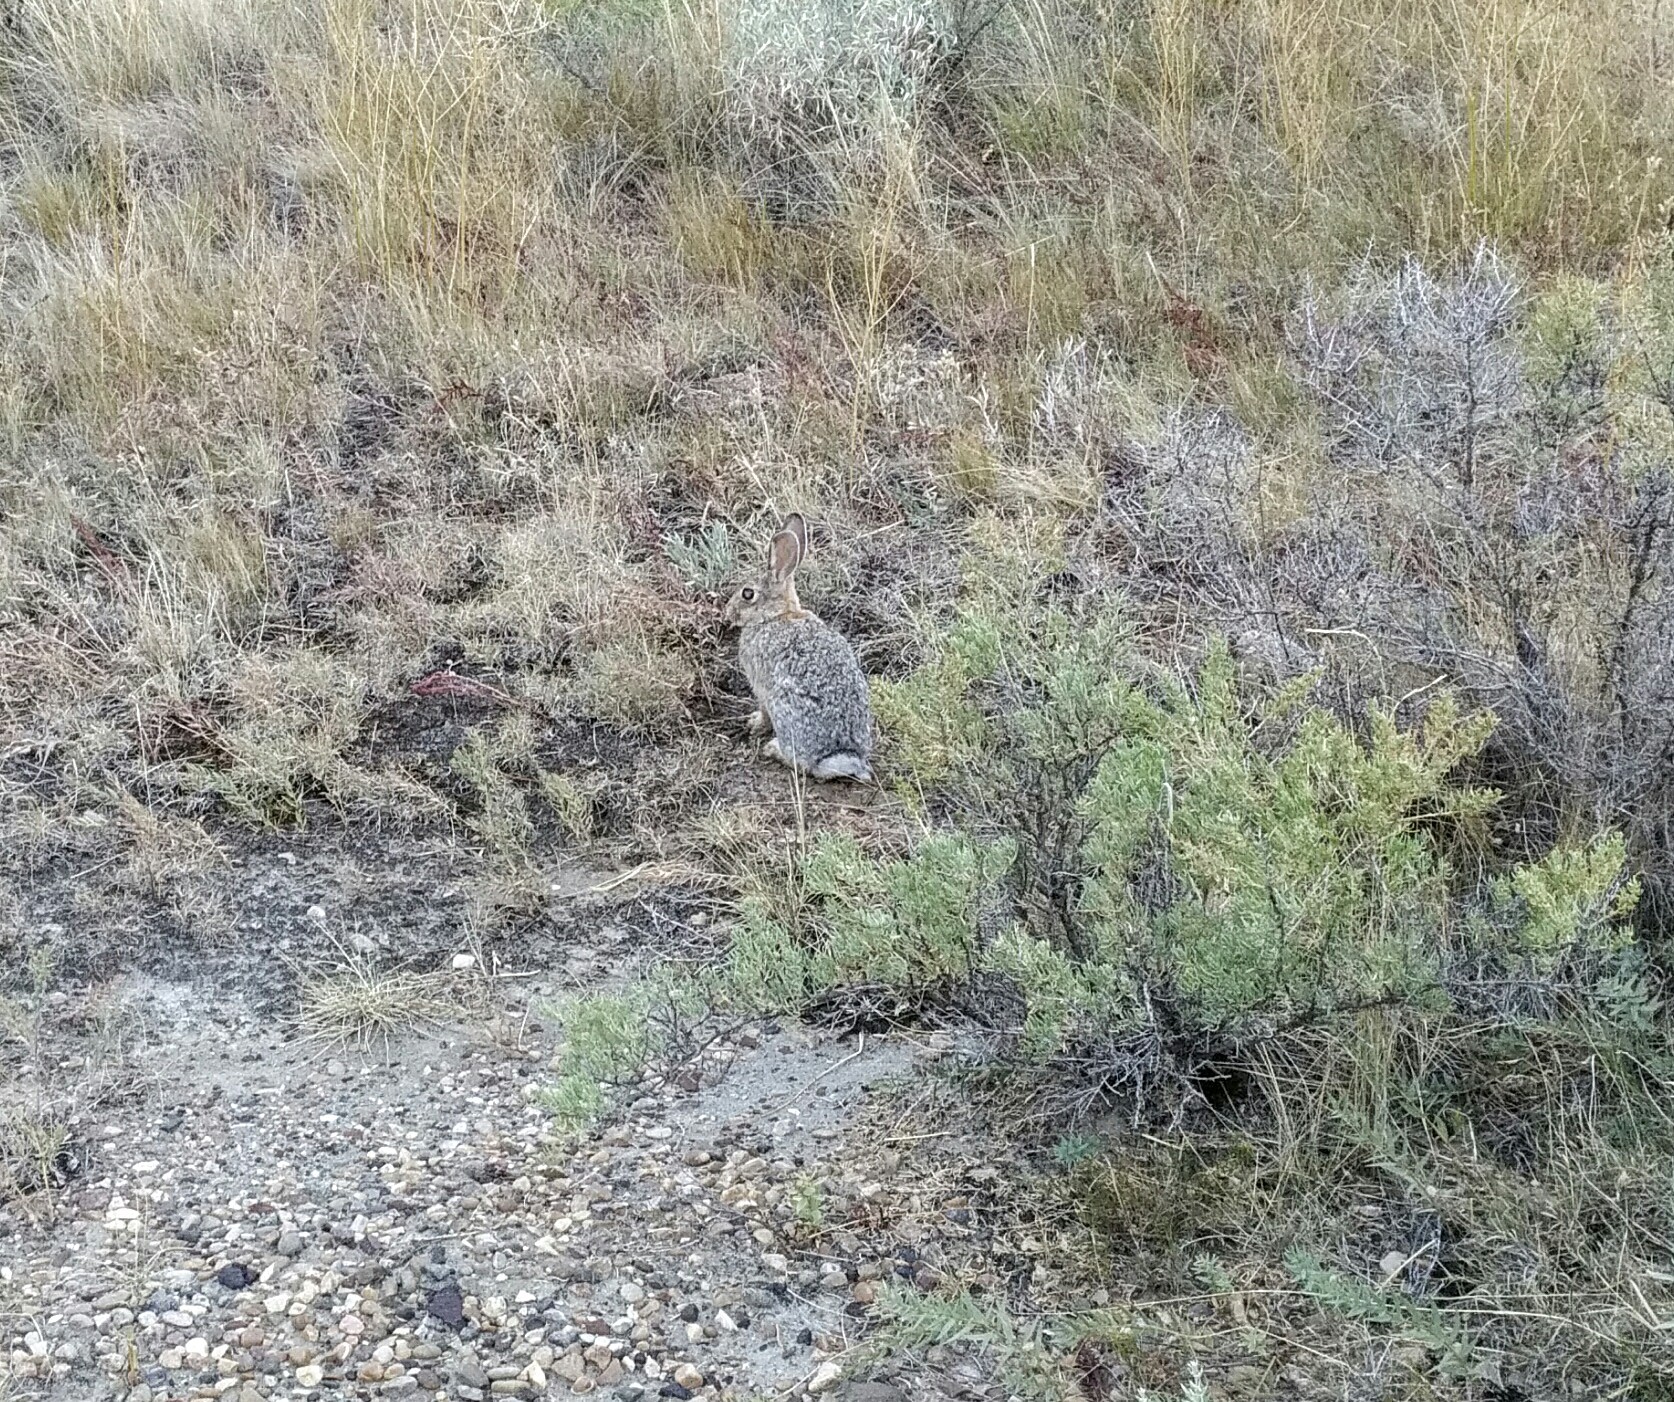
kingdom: Animalia
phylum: Chordata
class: Mammalia
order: Lagomorpha
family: Leporidae
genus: Sylvilagus
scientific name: Sylvilagus nuttallii
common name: Mountain cottontail
